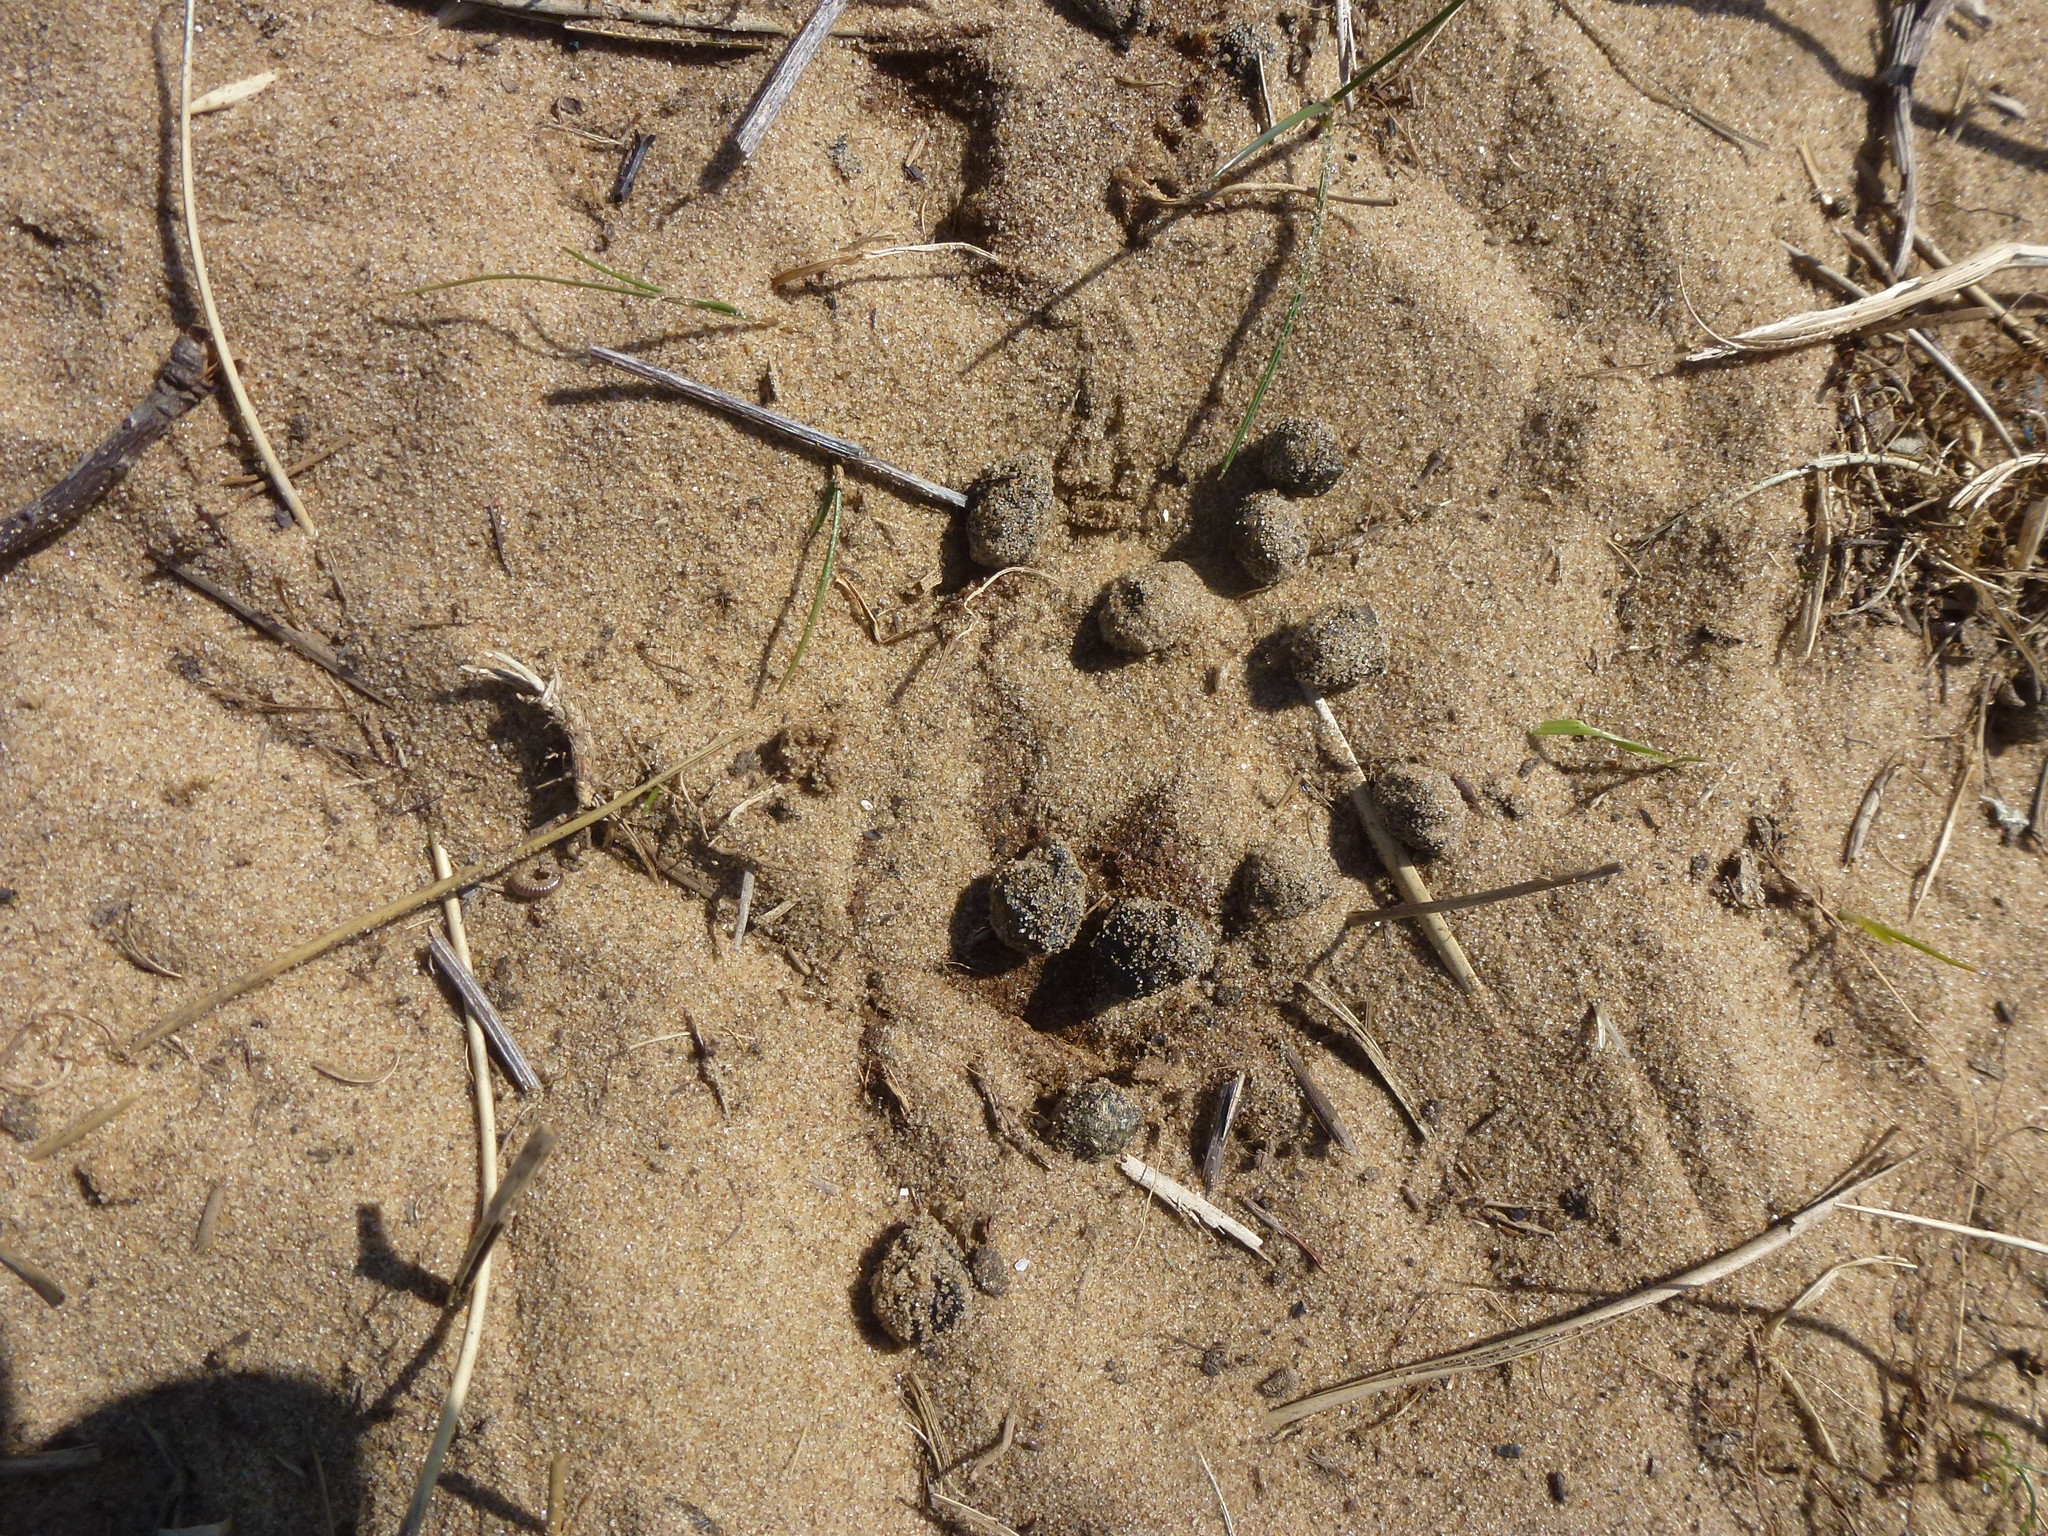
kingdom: Animalia
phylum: Chordata
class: Mammalia
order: Lagomorpha
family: Leporidae
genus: Oryctolagus
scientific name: Oryctolagus cuniculus
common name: European rabbit
